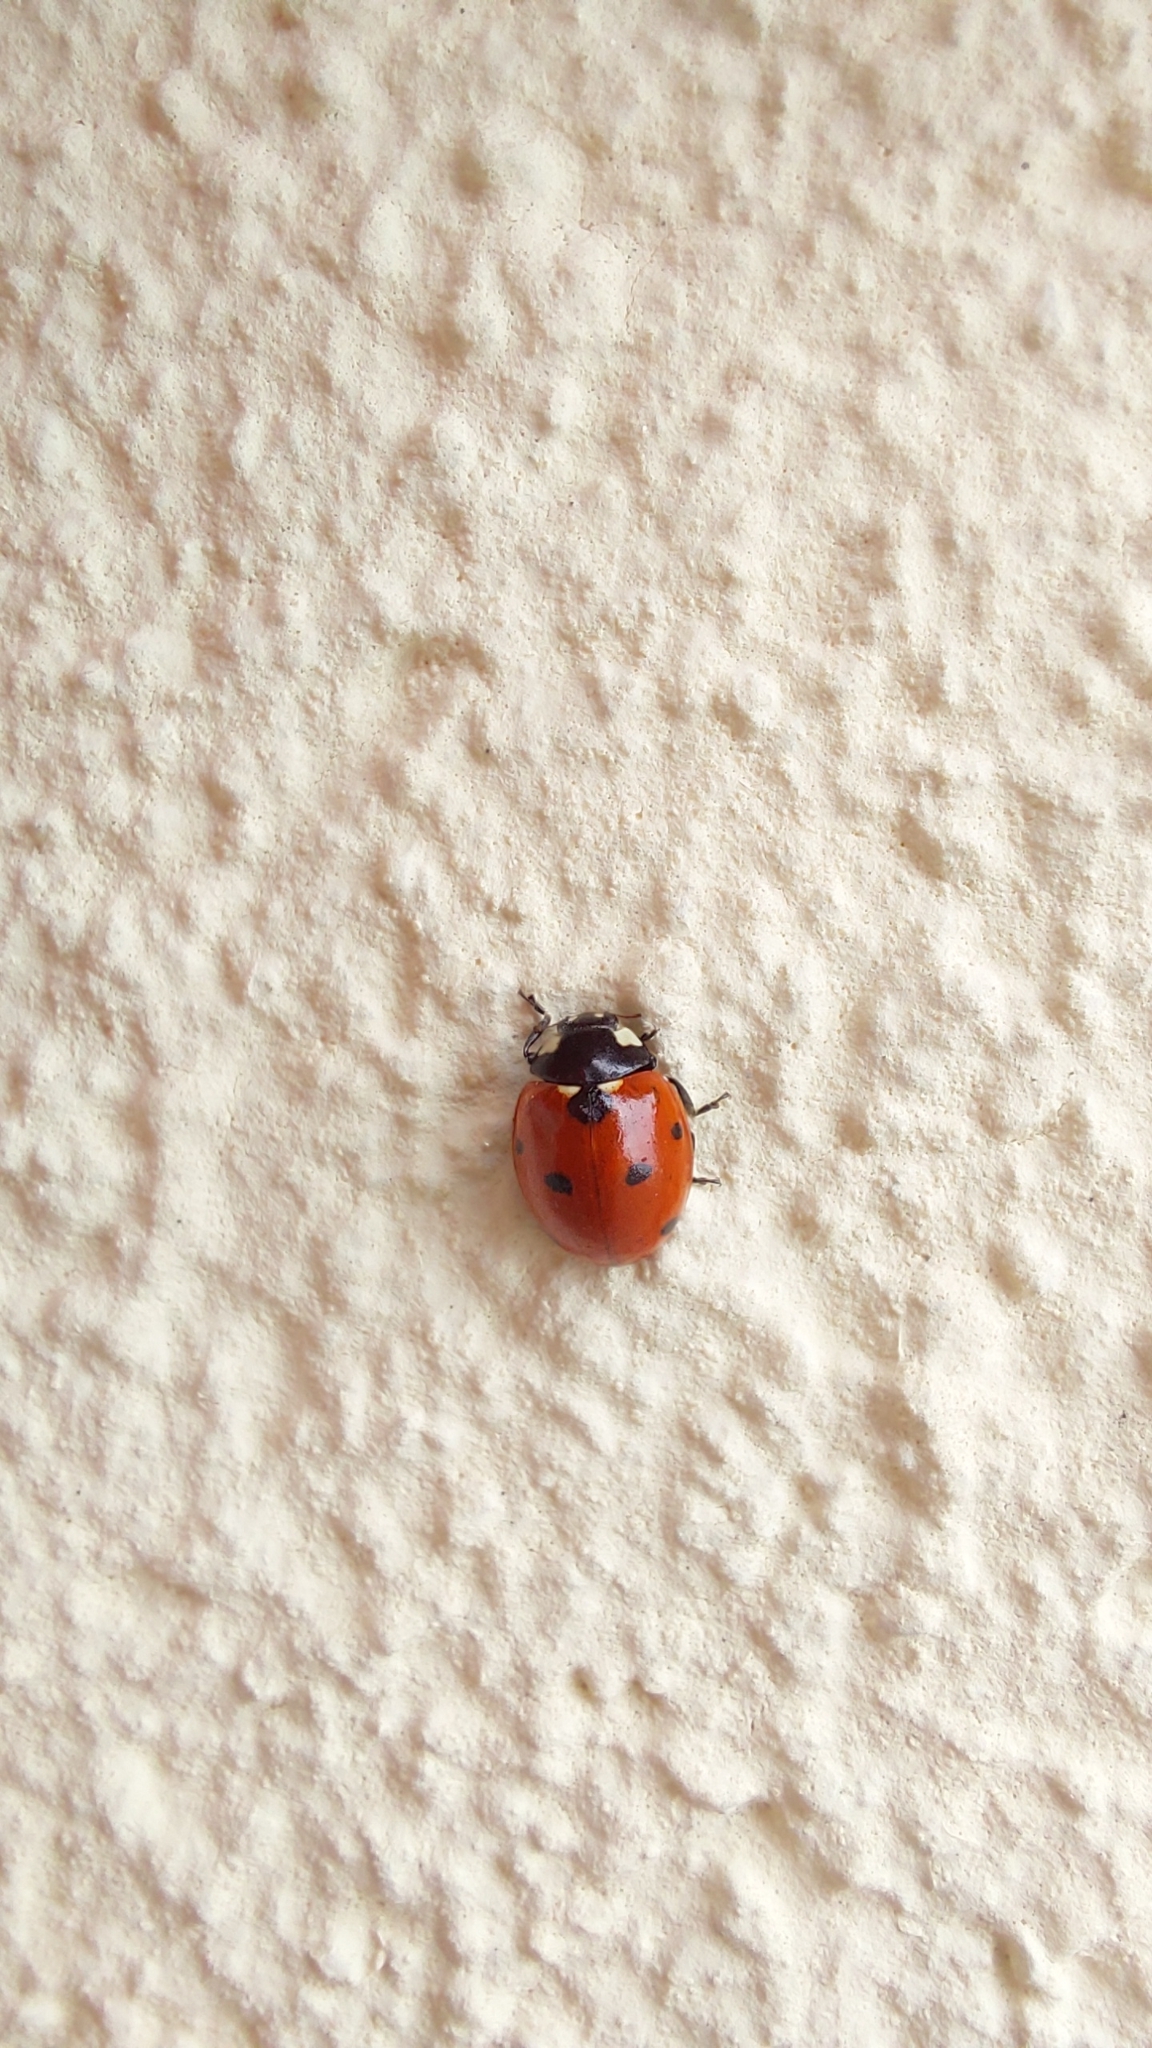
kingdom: Animalia
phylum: Arthropoda
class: Insecta
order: Coleoptera
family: Coccinellidae
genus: Coccinella
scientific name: Coccinella septempunctata
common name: Sevenspotted lady beetle
